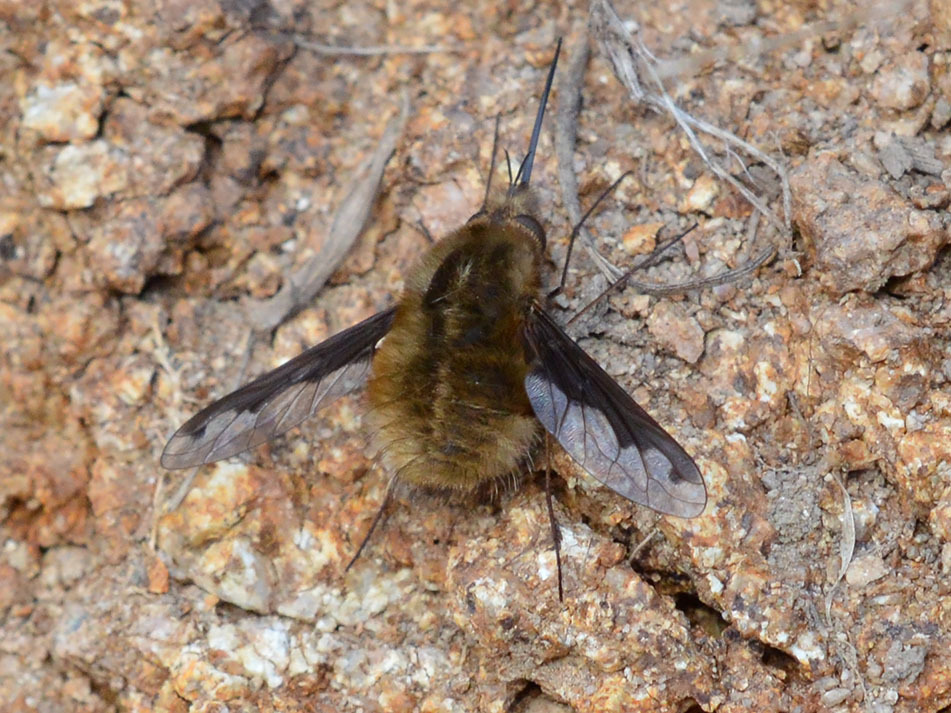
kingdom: Animalia
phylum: Arthropoda
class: Insecta
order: Diptera
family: Bombyliidae
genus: Bombylius
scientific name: Bombylius major
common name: Bee fly
